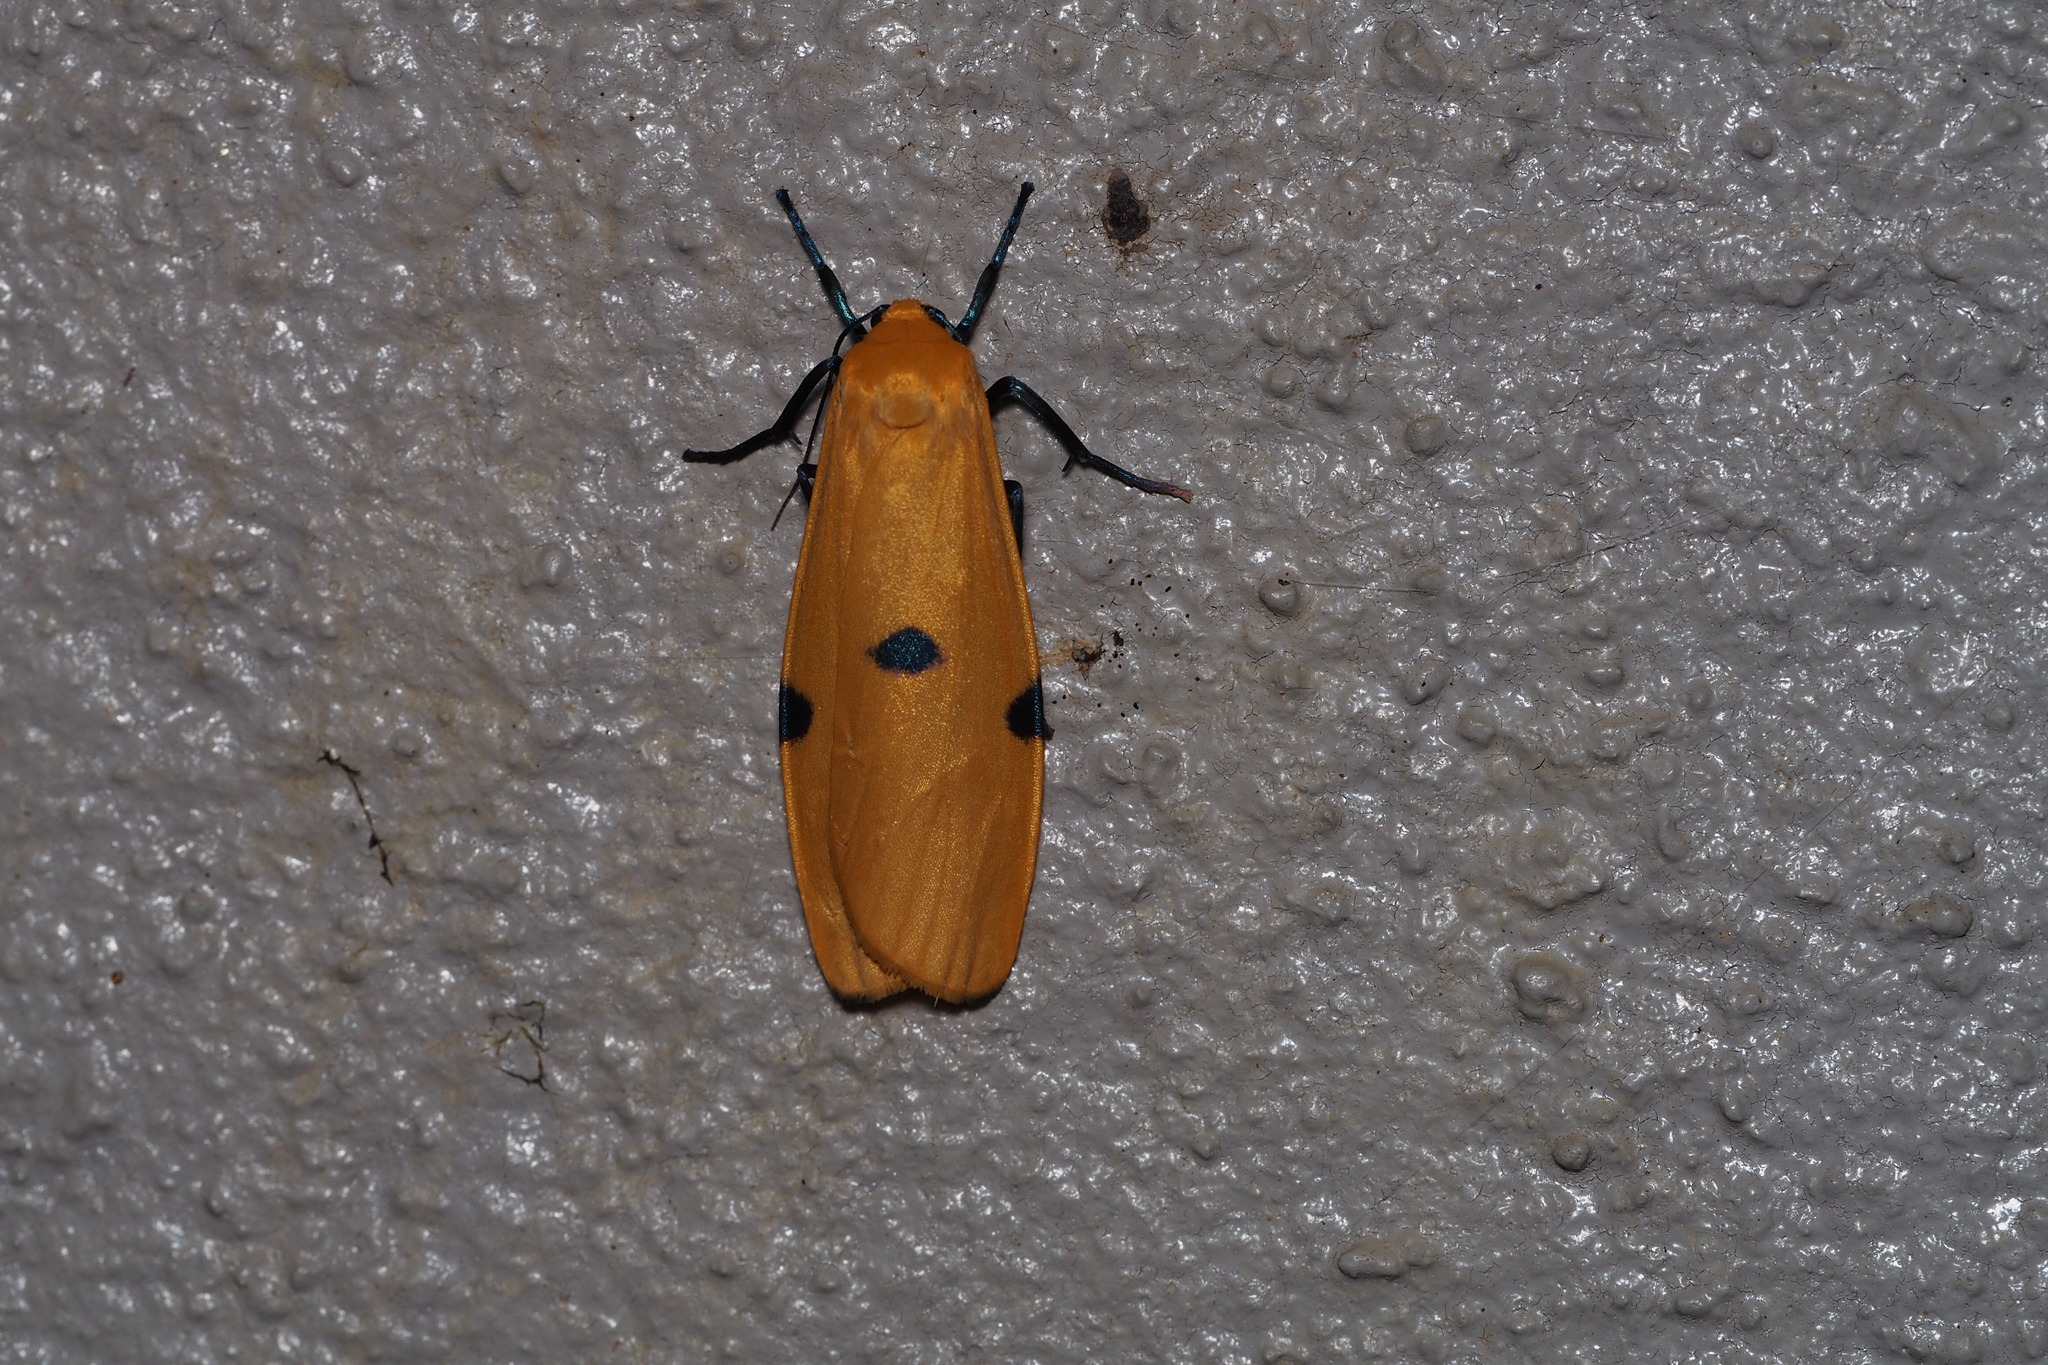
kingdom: Animalia
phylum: Arthropoda
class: Insecta
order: Lepidoptera
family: Erebidae
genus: Lithosia
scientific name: Lithosia quadra
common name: Four-spotted footman
